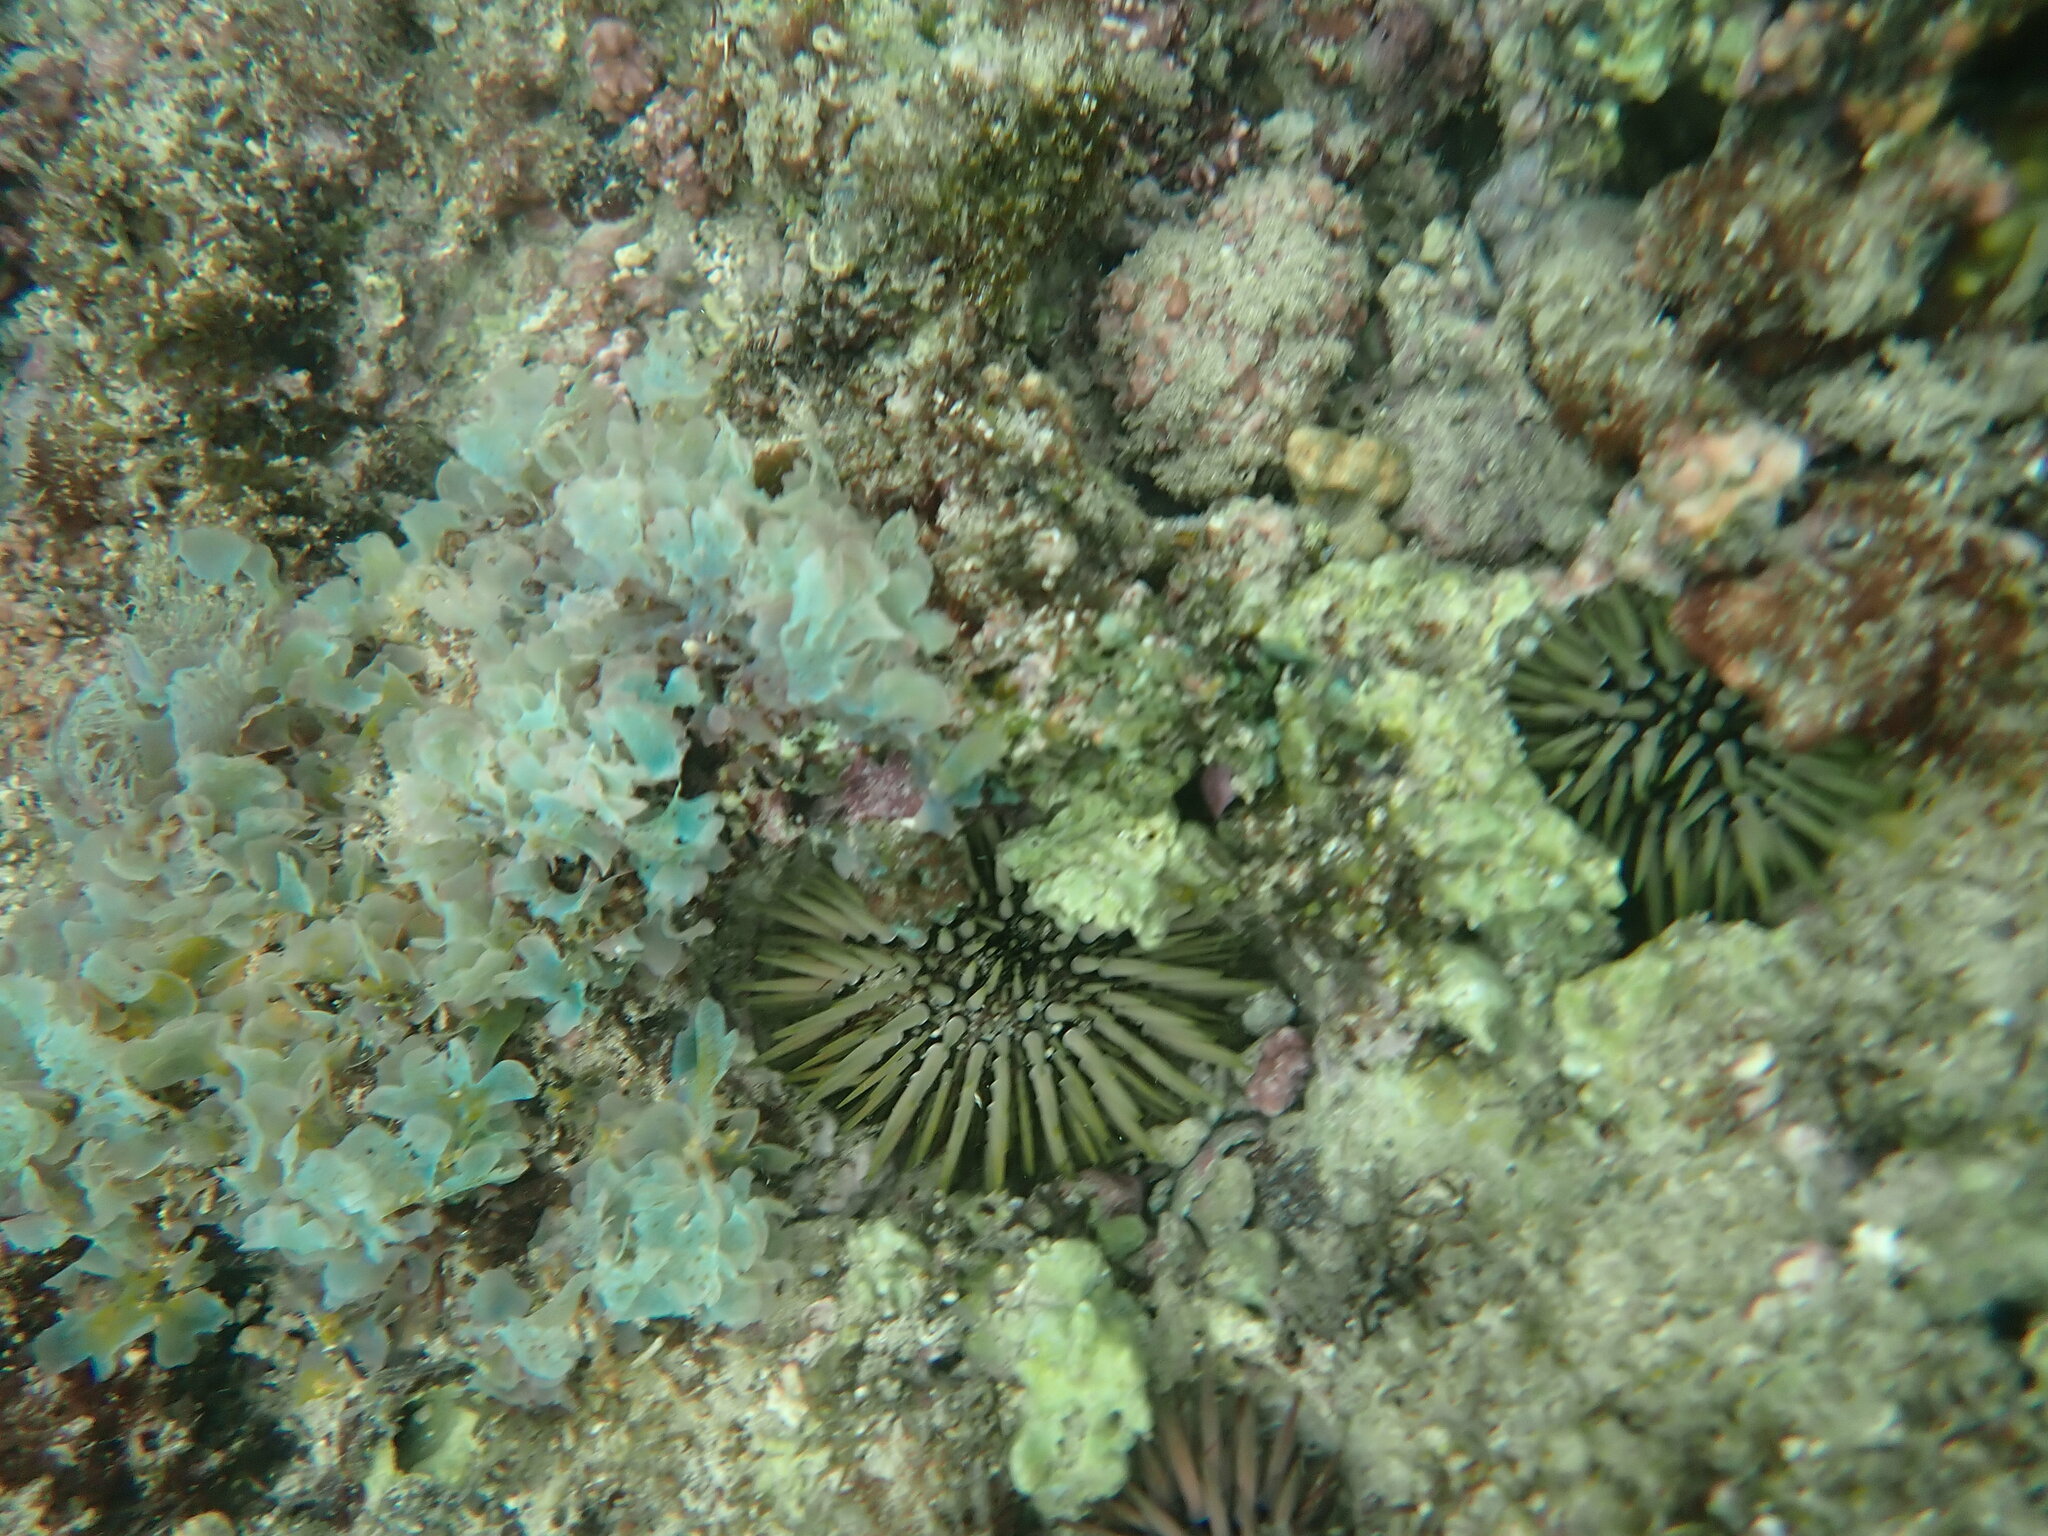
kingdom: Animalia
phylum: Echinodermata
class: Echinoidea
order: Camarodonta
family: Echinometridae
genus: Echinometra
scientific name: Echinometra mathaei
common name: Rock-boring urchin
